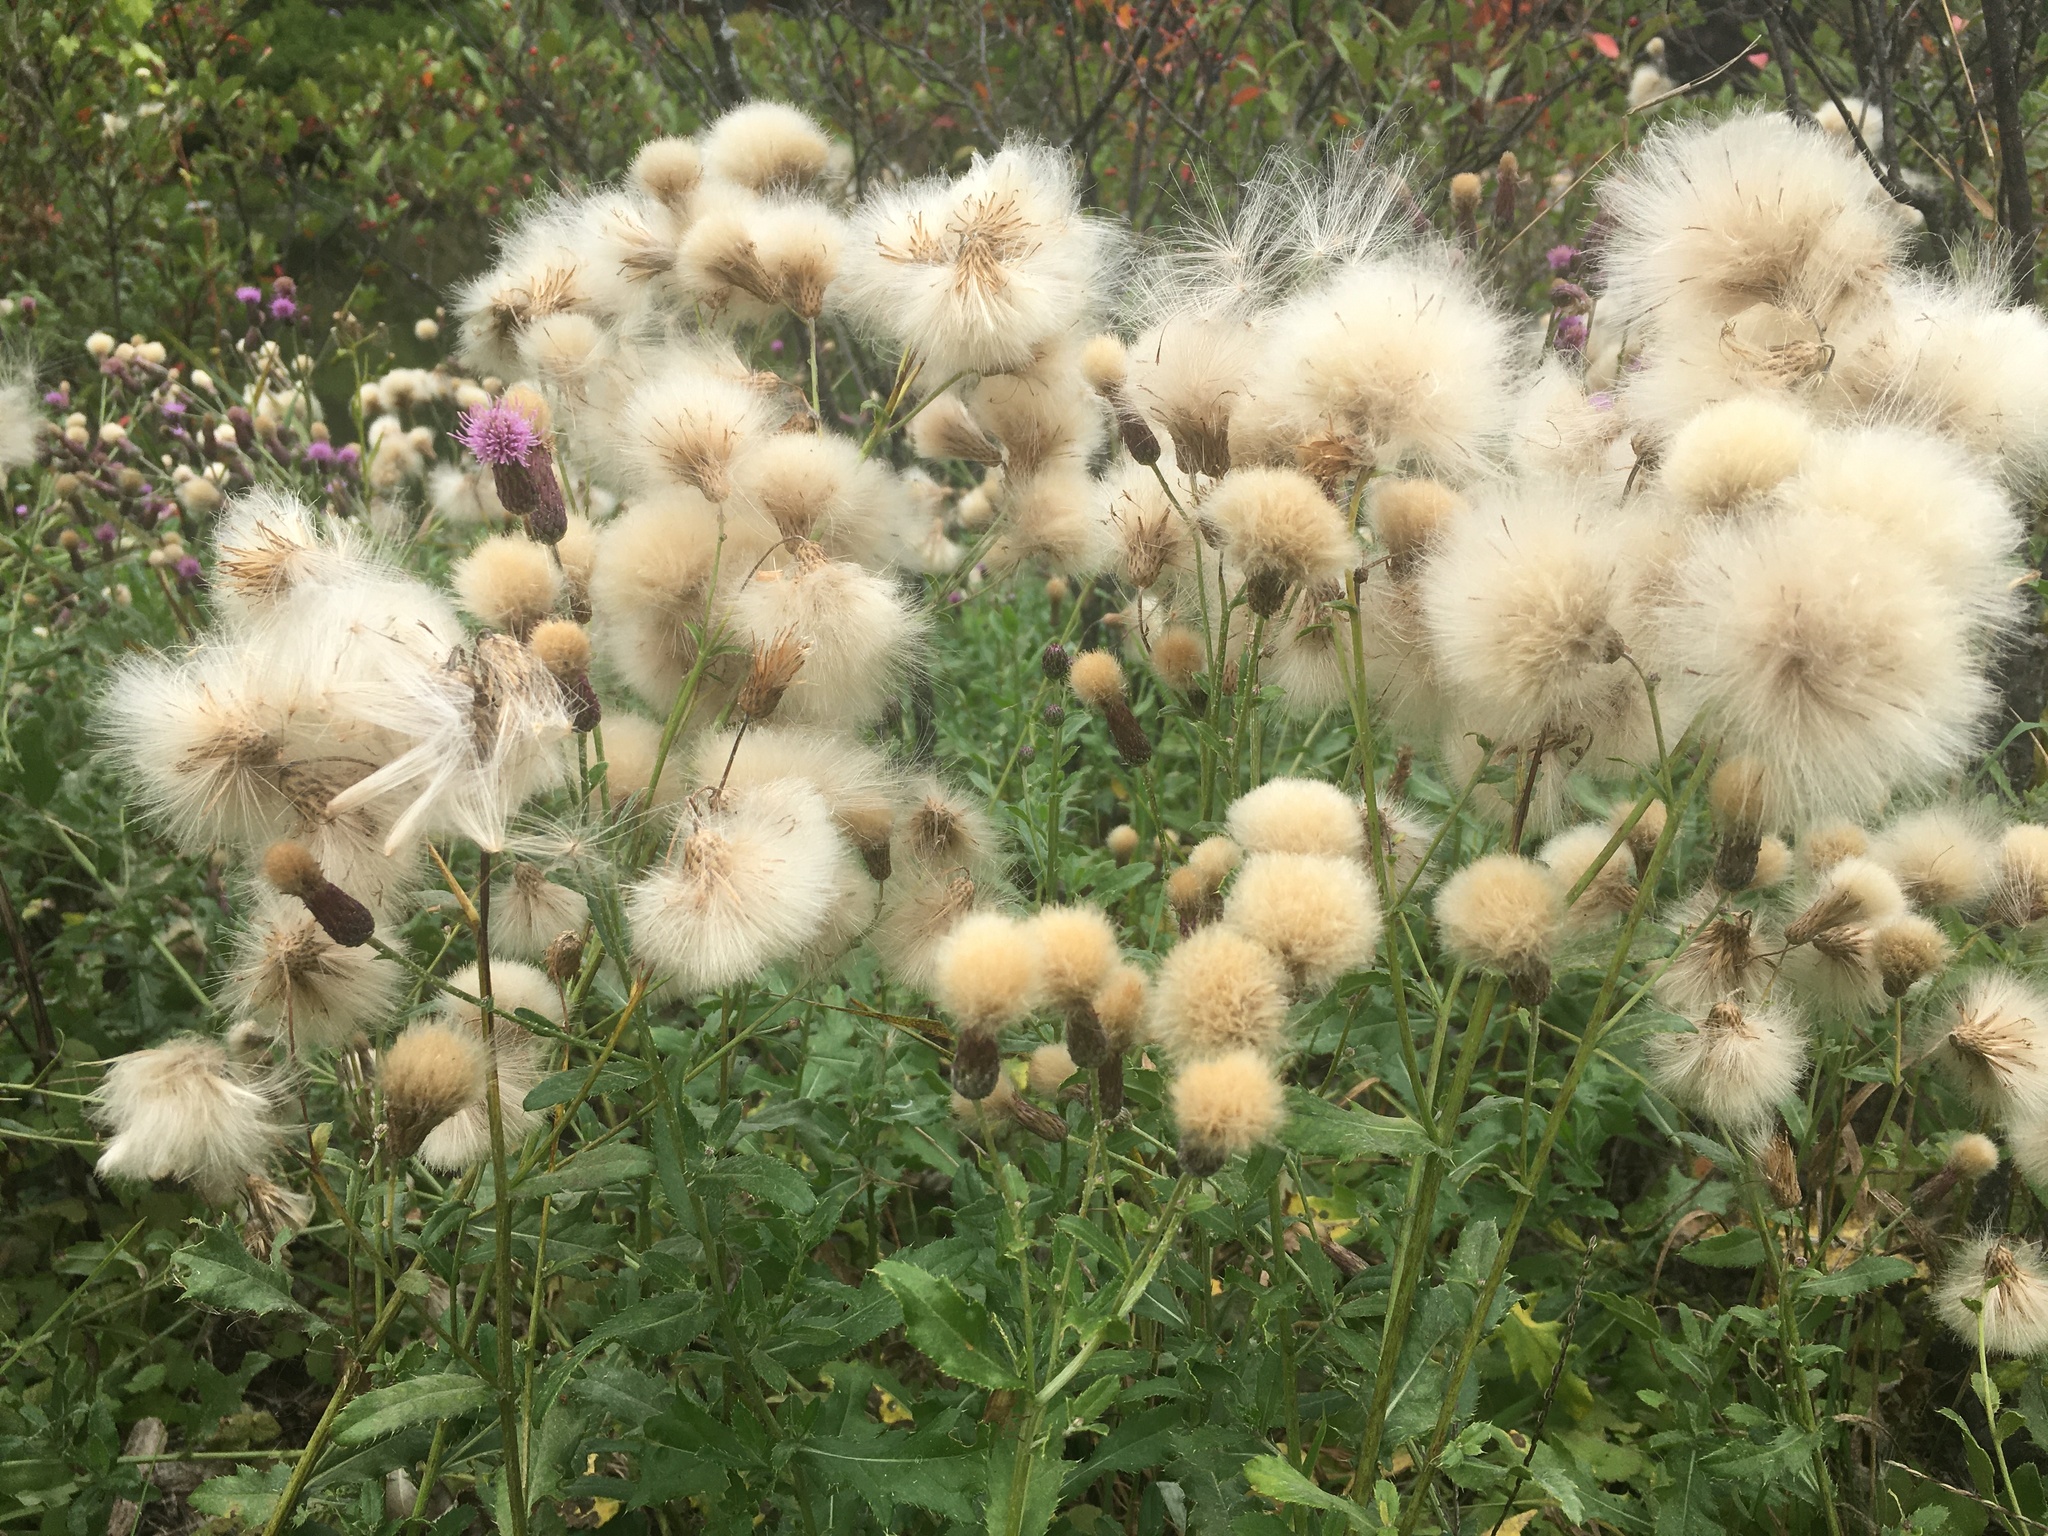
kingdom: Plantae
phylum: Tracheophyta
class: Magnoliopsida
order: Asterales
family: Asteraceae
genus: Cirsium
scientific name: Cirsium arvense
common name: Creeping thistle
